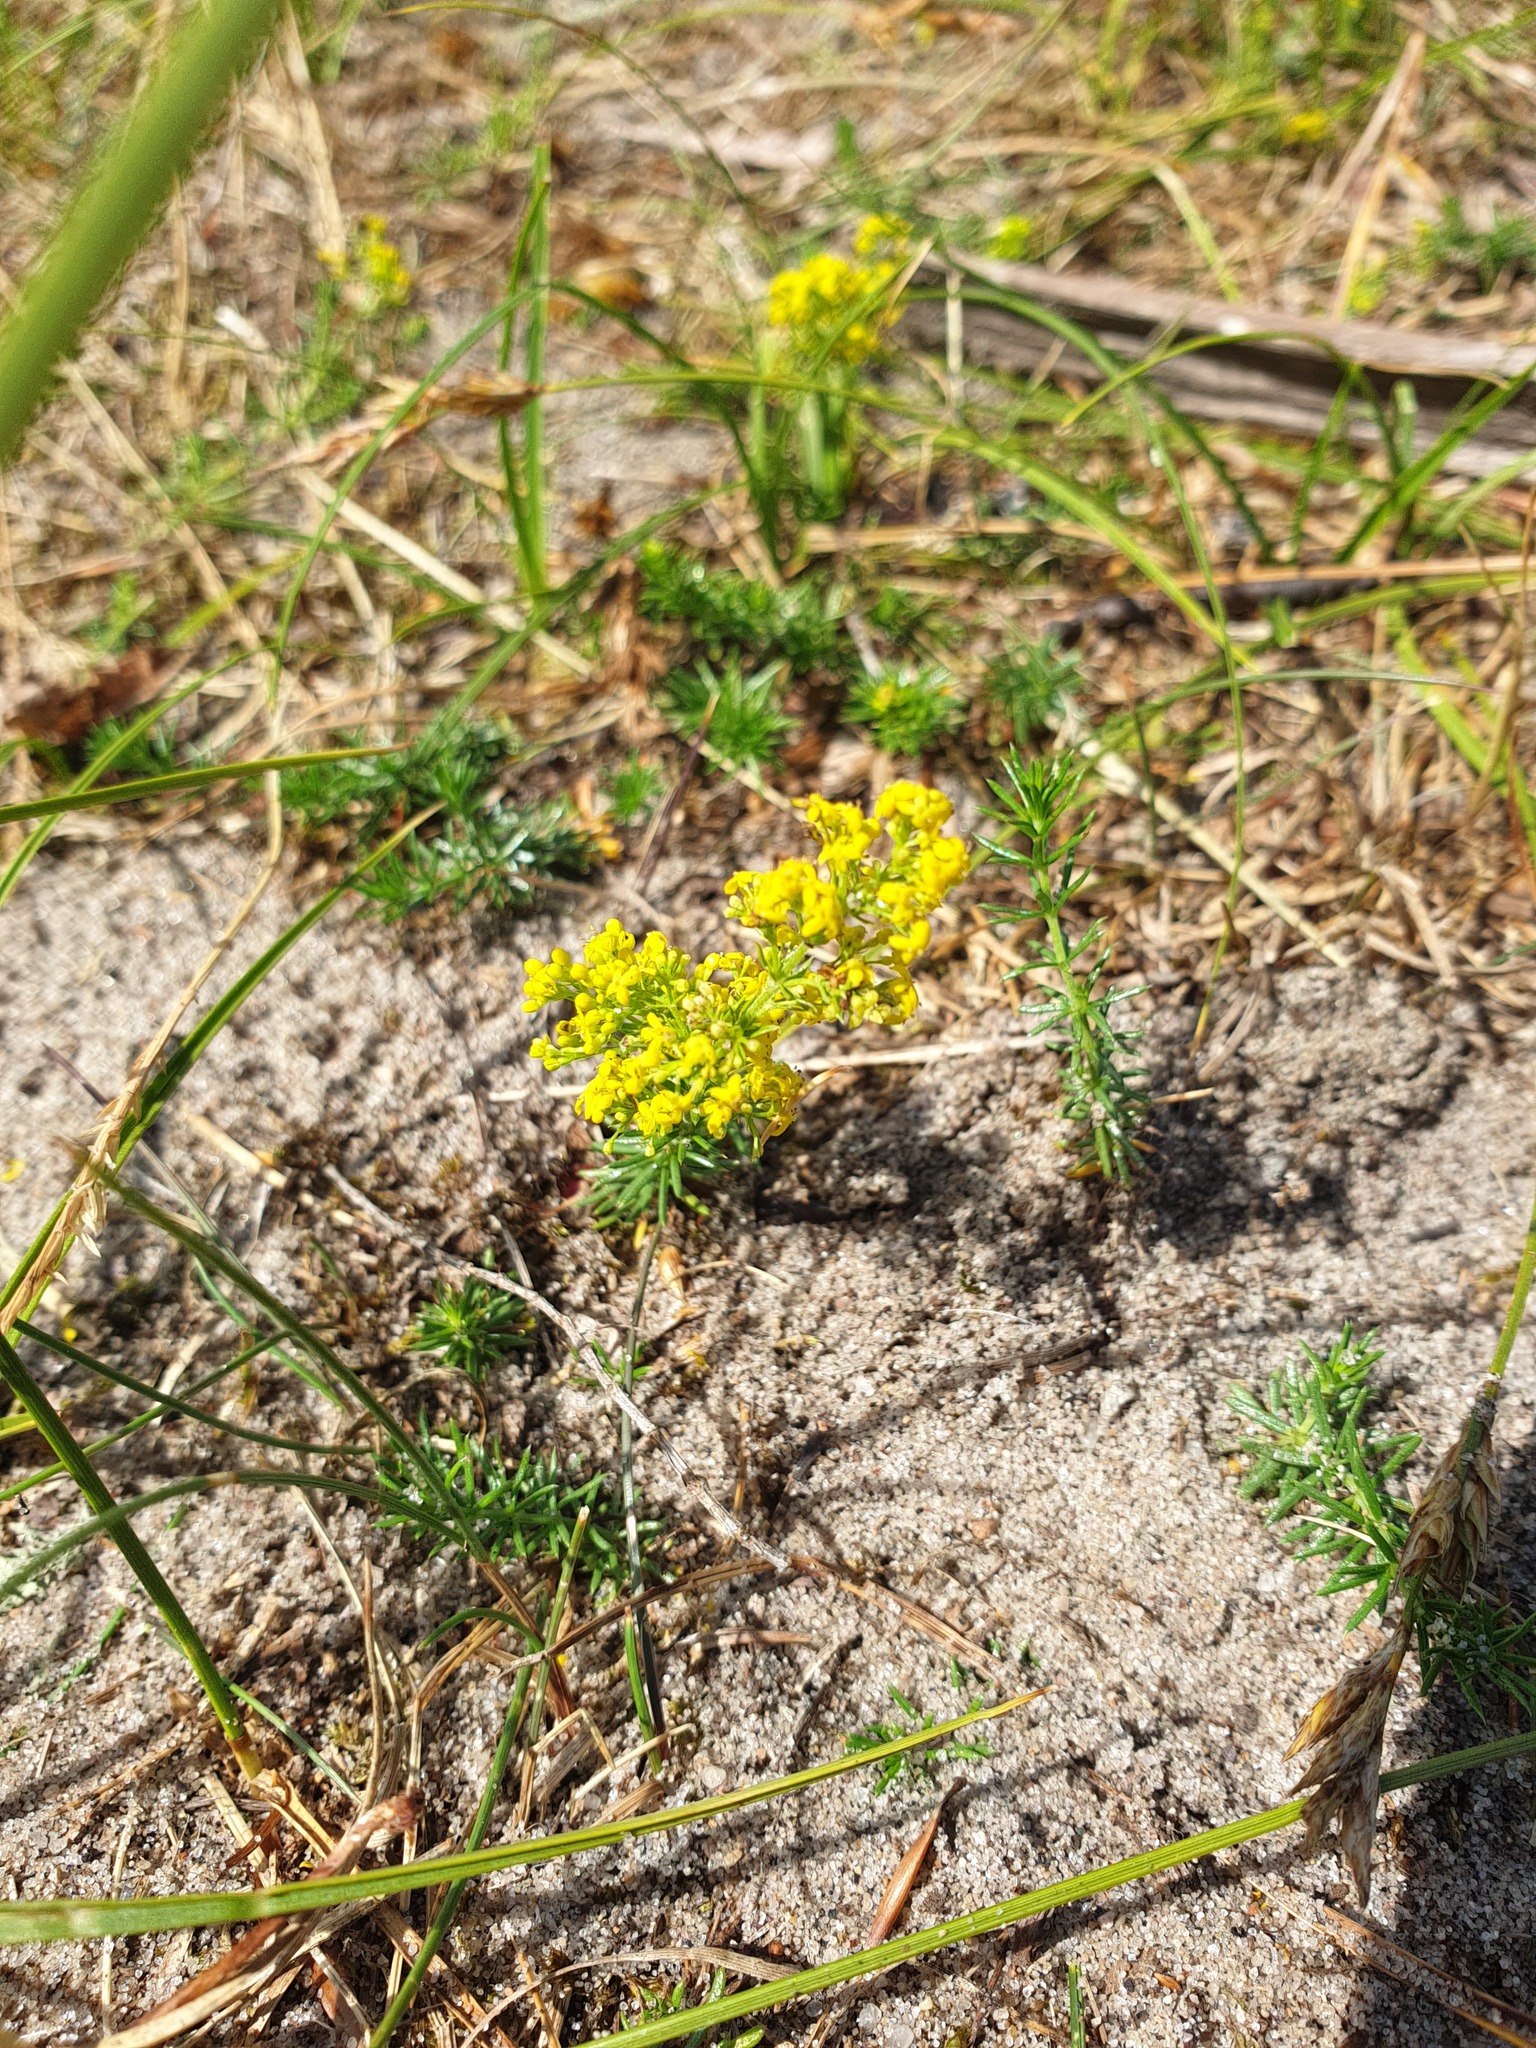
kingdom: Plantae
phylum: Tracheophyta
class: Magnoliopsida
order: Gentianales
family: Rubiaceae
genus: Galium
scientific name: Galium verum
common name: Lady's bedstraw
